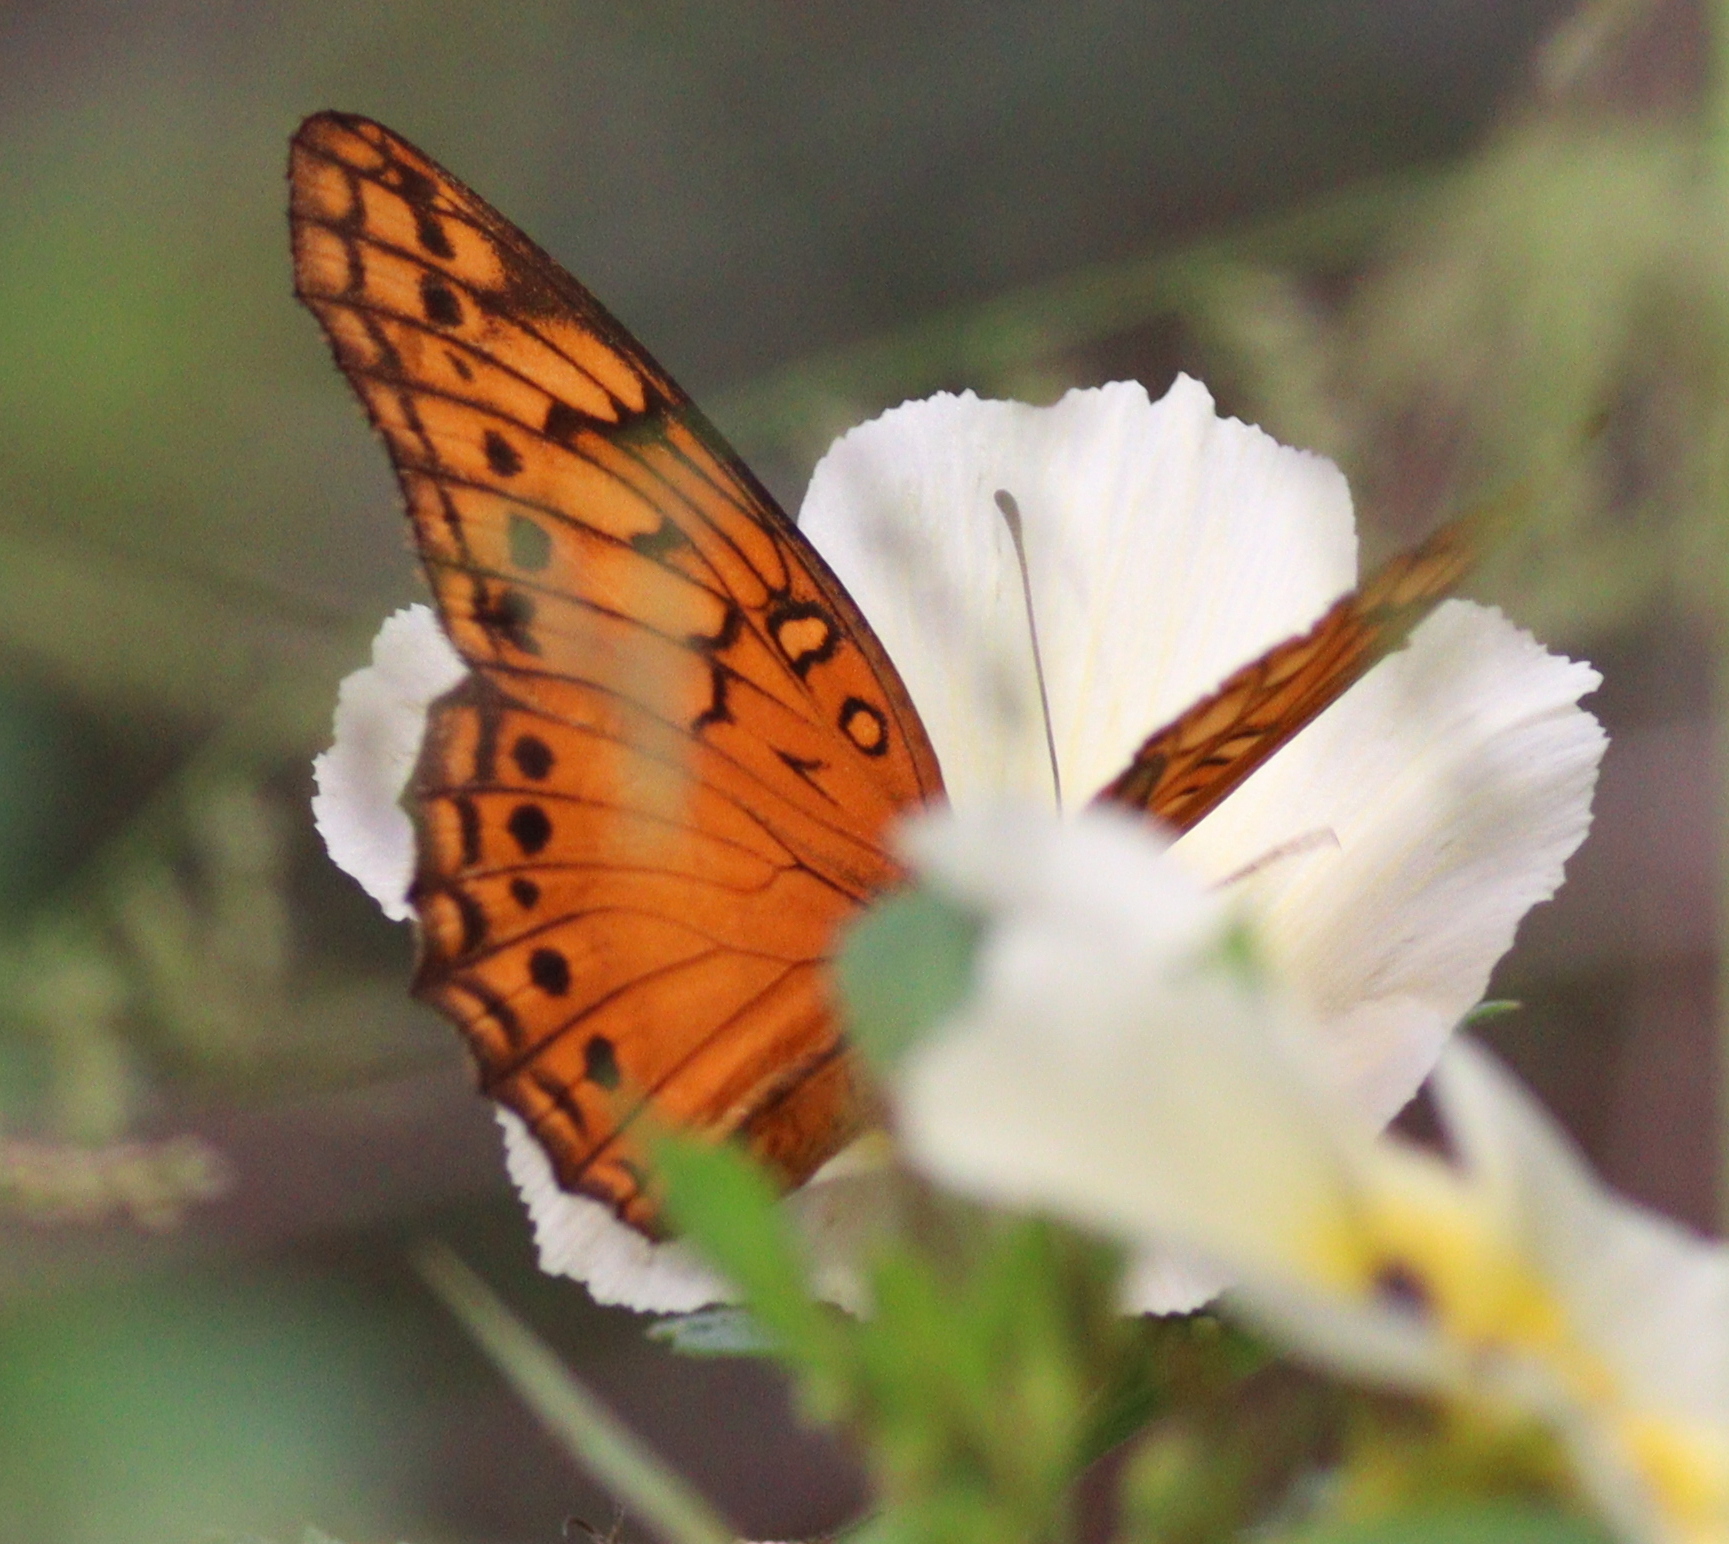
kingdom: Animalia
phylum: Arthropoda
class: Insecta
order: Lepidoptera
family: Nymphalidae
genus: Euptoieta
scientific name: Euptoieta hegesia
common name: Mexican fritillary
